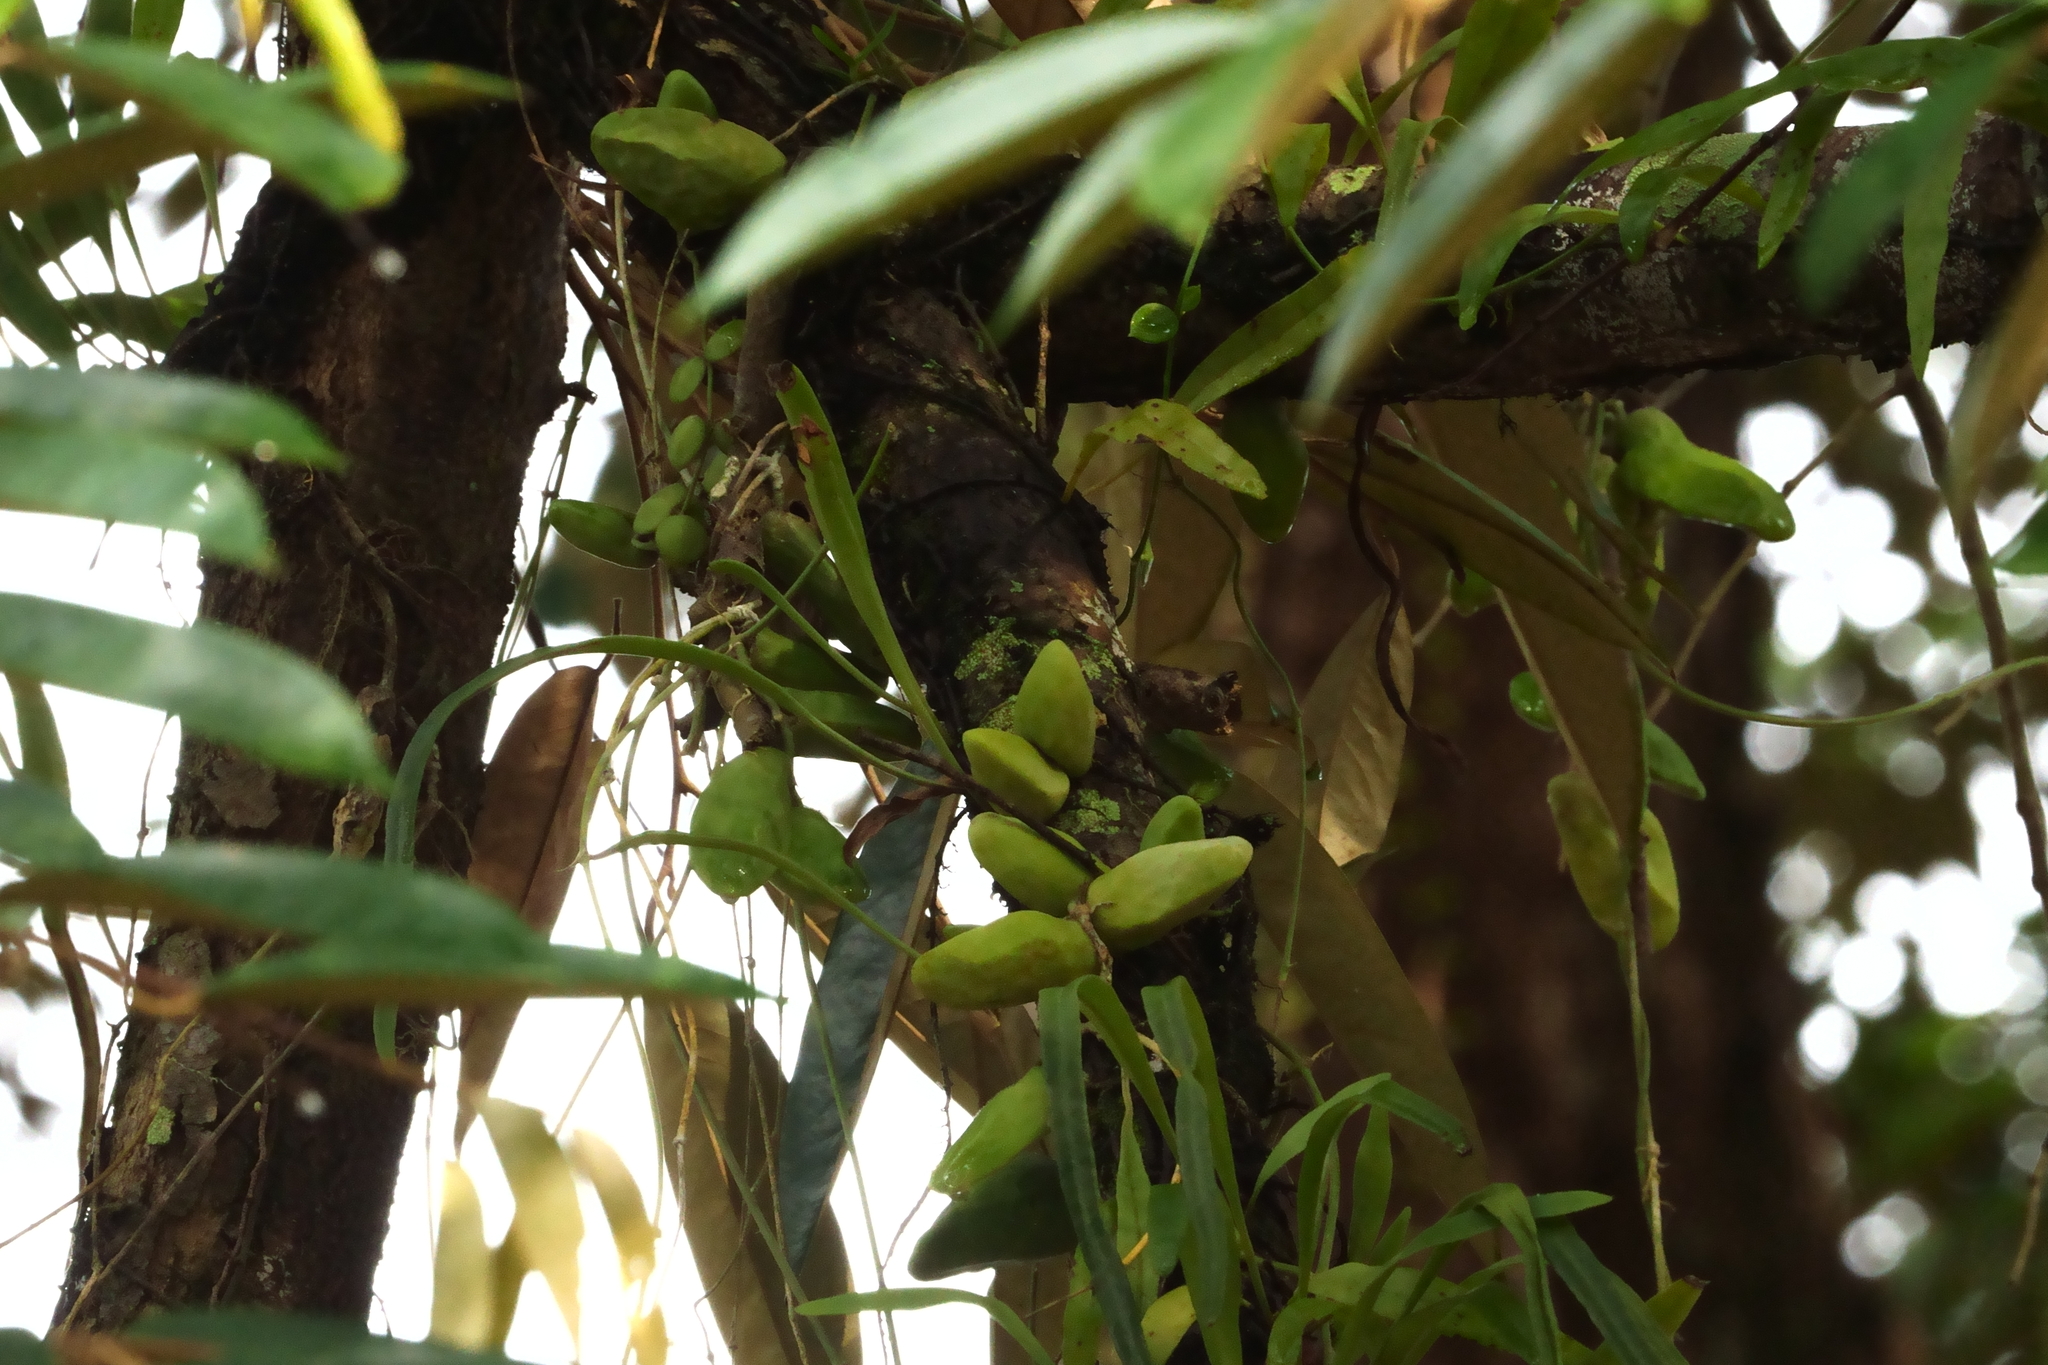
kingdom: Plantae
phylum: Tracheophyta
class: Magnoliopsida
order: Gentianales
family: Apocynaceae
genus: Dischidia
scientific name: Dischidia major
